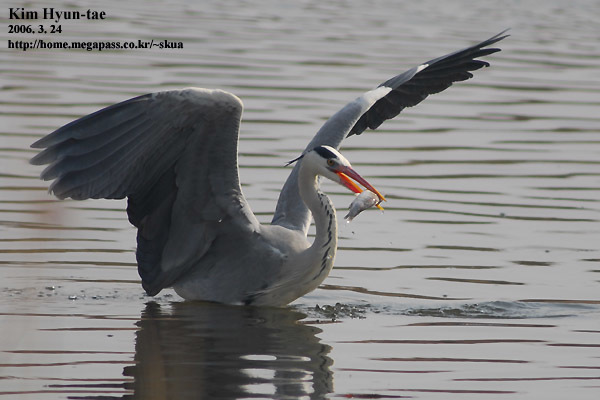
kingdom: Animalia
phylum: Chordata
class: Aves
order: Pelecaniformes
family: Ardeidae
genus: Ardea
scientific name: Ardea cinerea
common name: Grey heron
